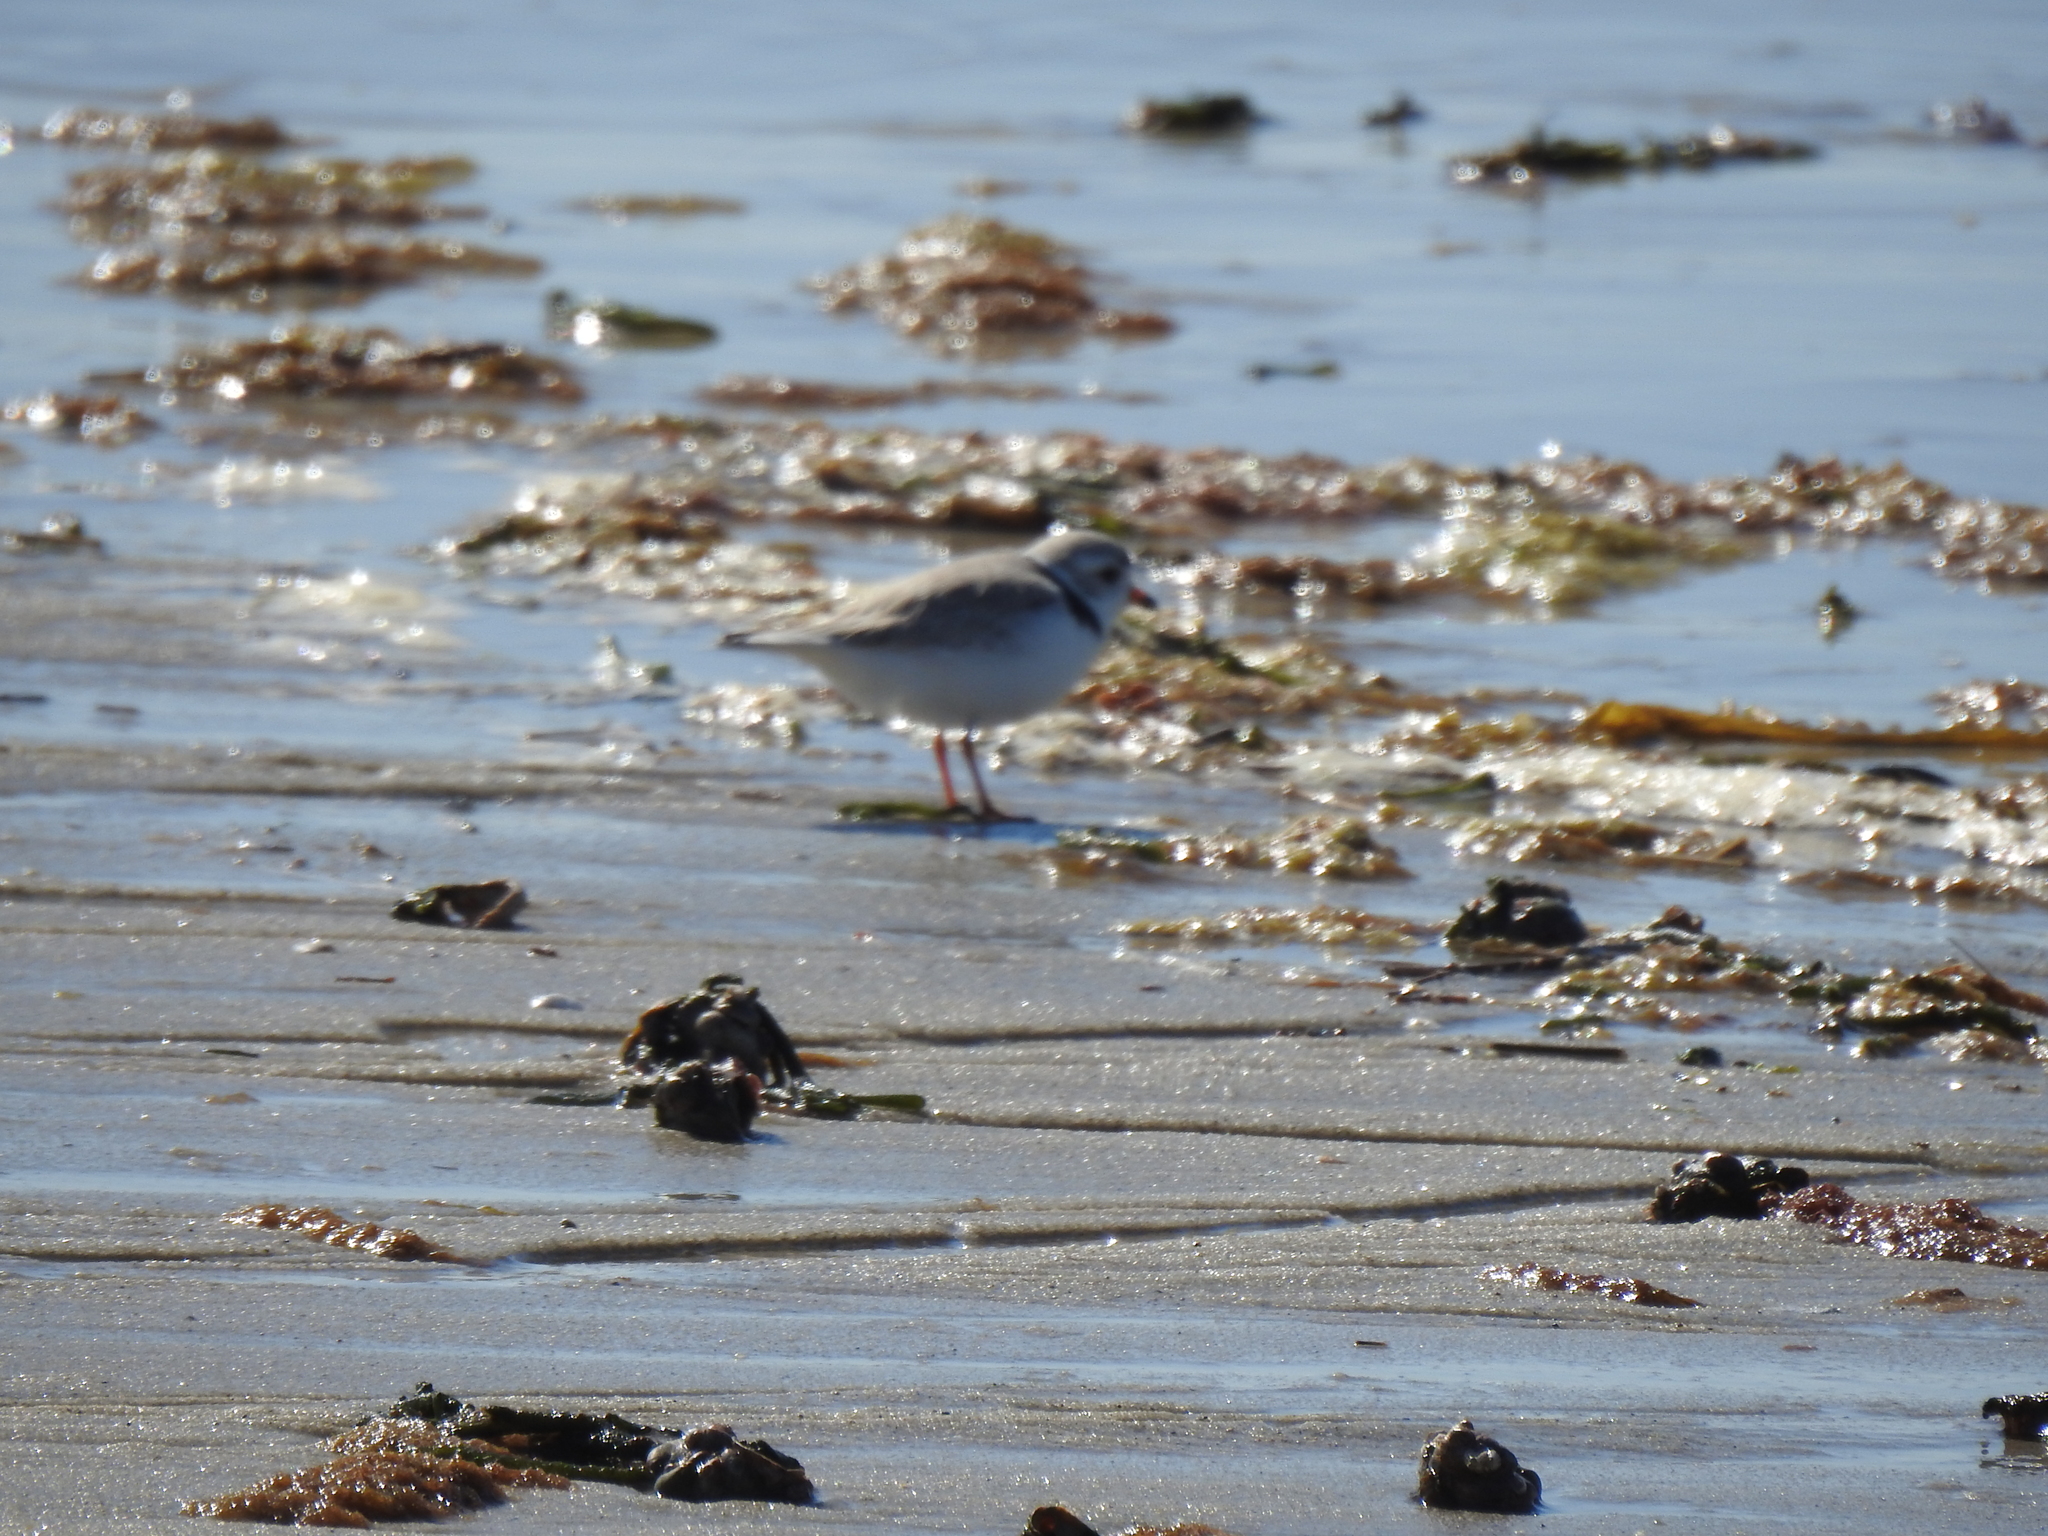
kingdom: Animalia
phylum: Chordata
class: Aves
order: Charadriiformes
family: Charadriidae
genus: Charadrius
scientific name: Charadrius melodus
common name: Piping plover
